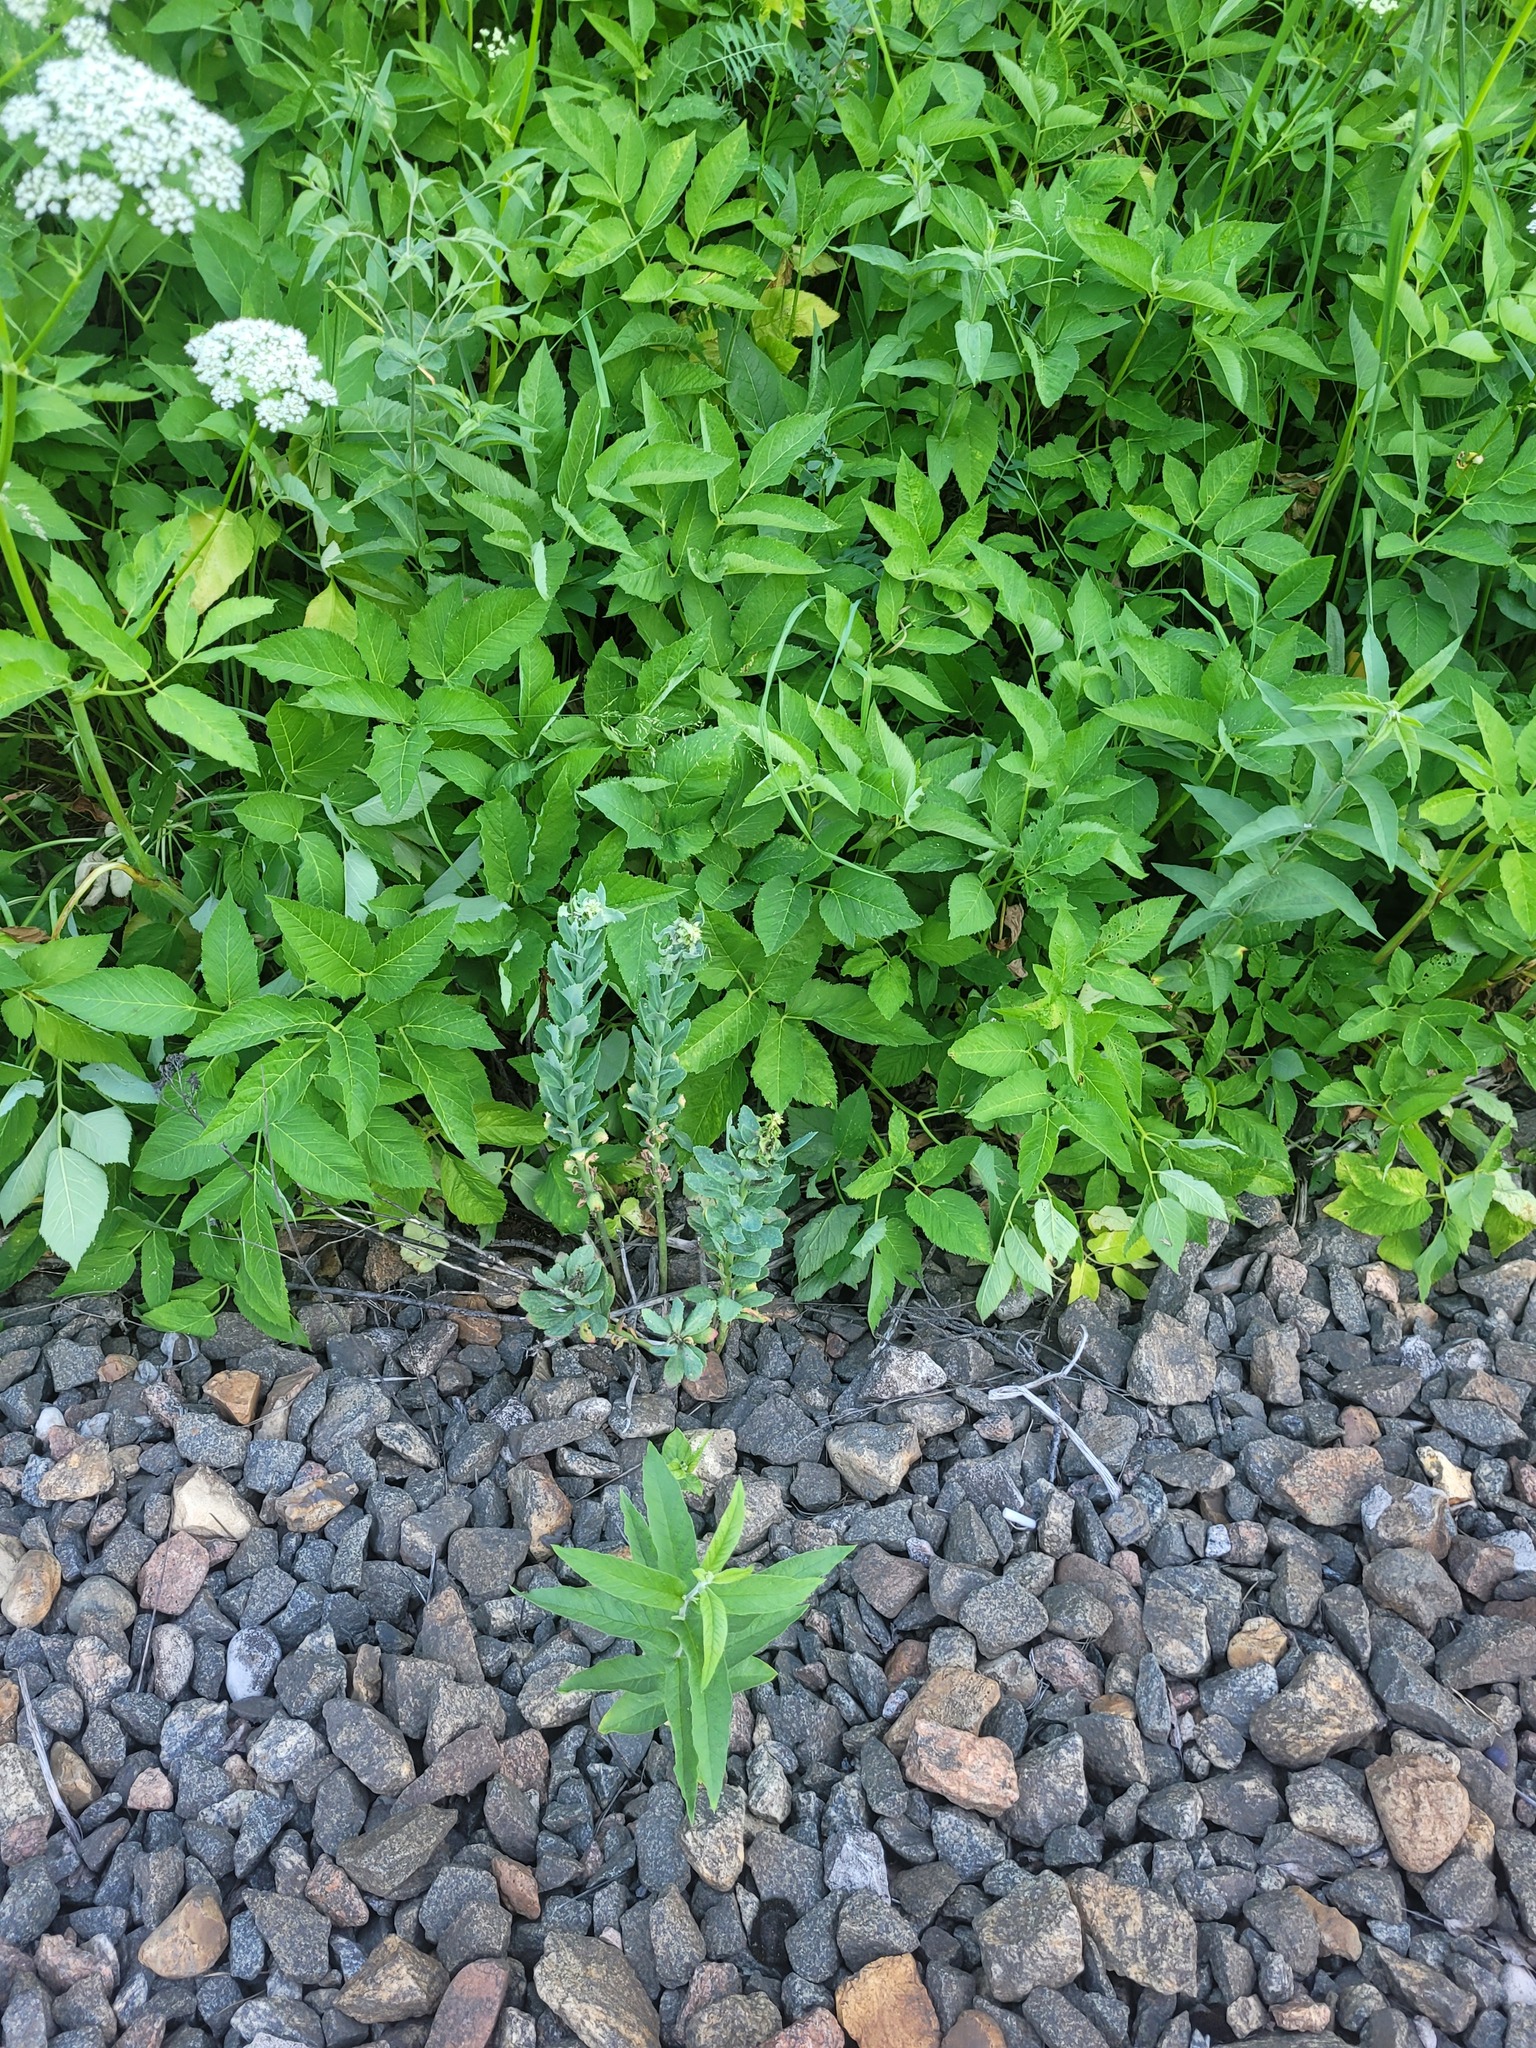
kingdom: Plantae
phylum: Tracheophyta
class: Magnoliopsida
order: Saxifragales
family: Crassulaceae
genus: Hylotelephium
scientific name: Hylotelephium telephium
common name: Live-forever
